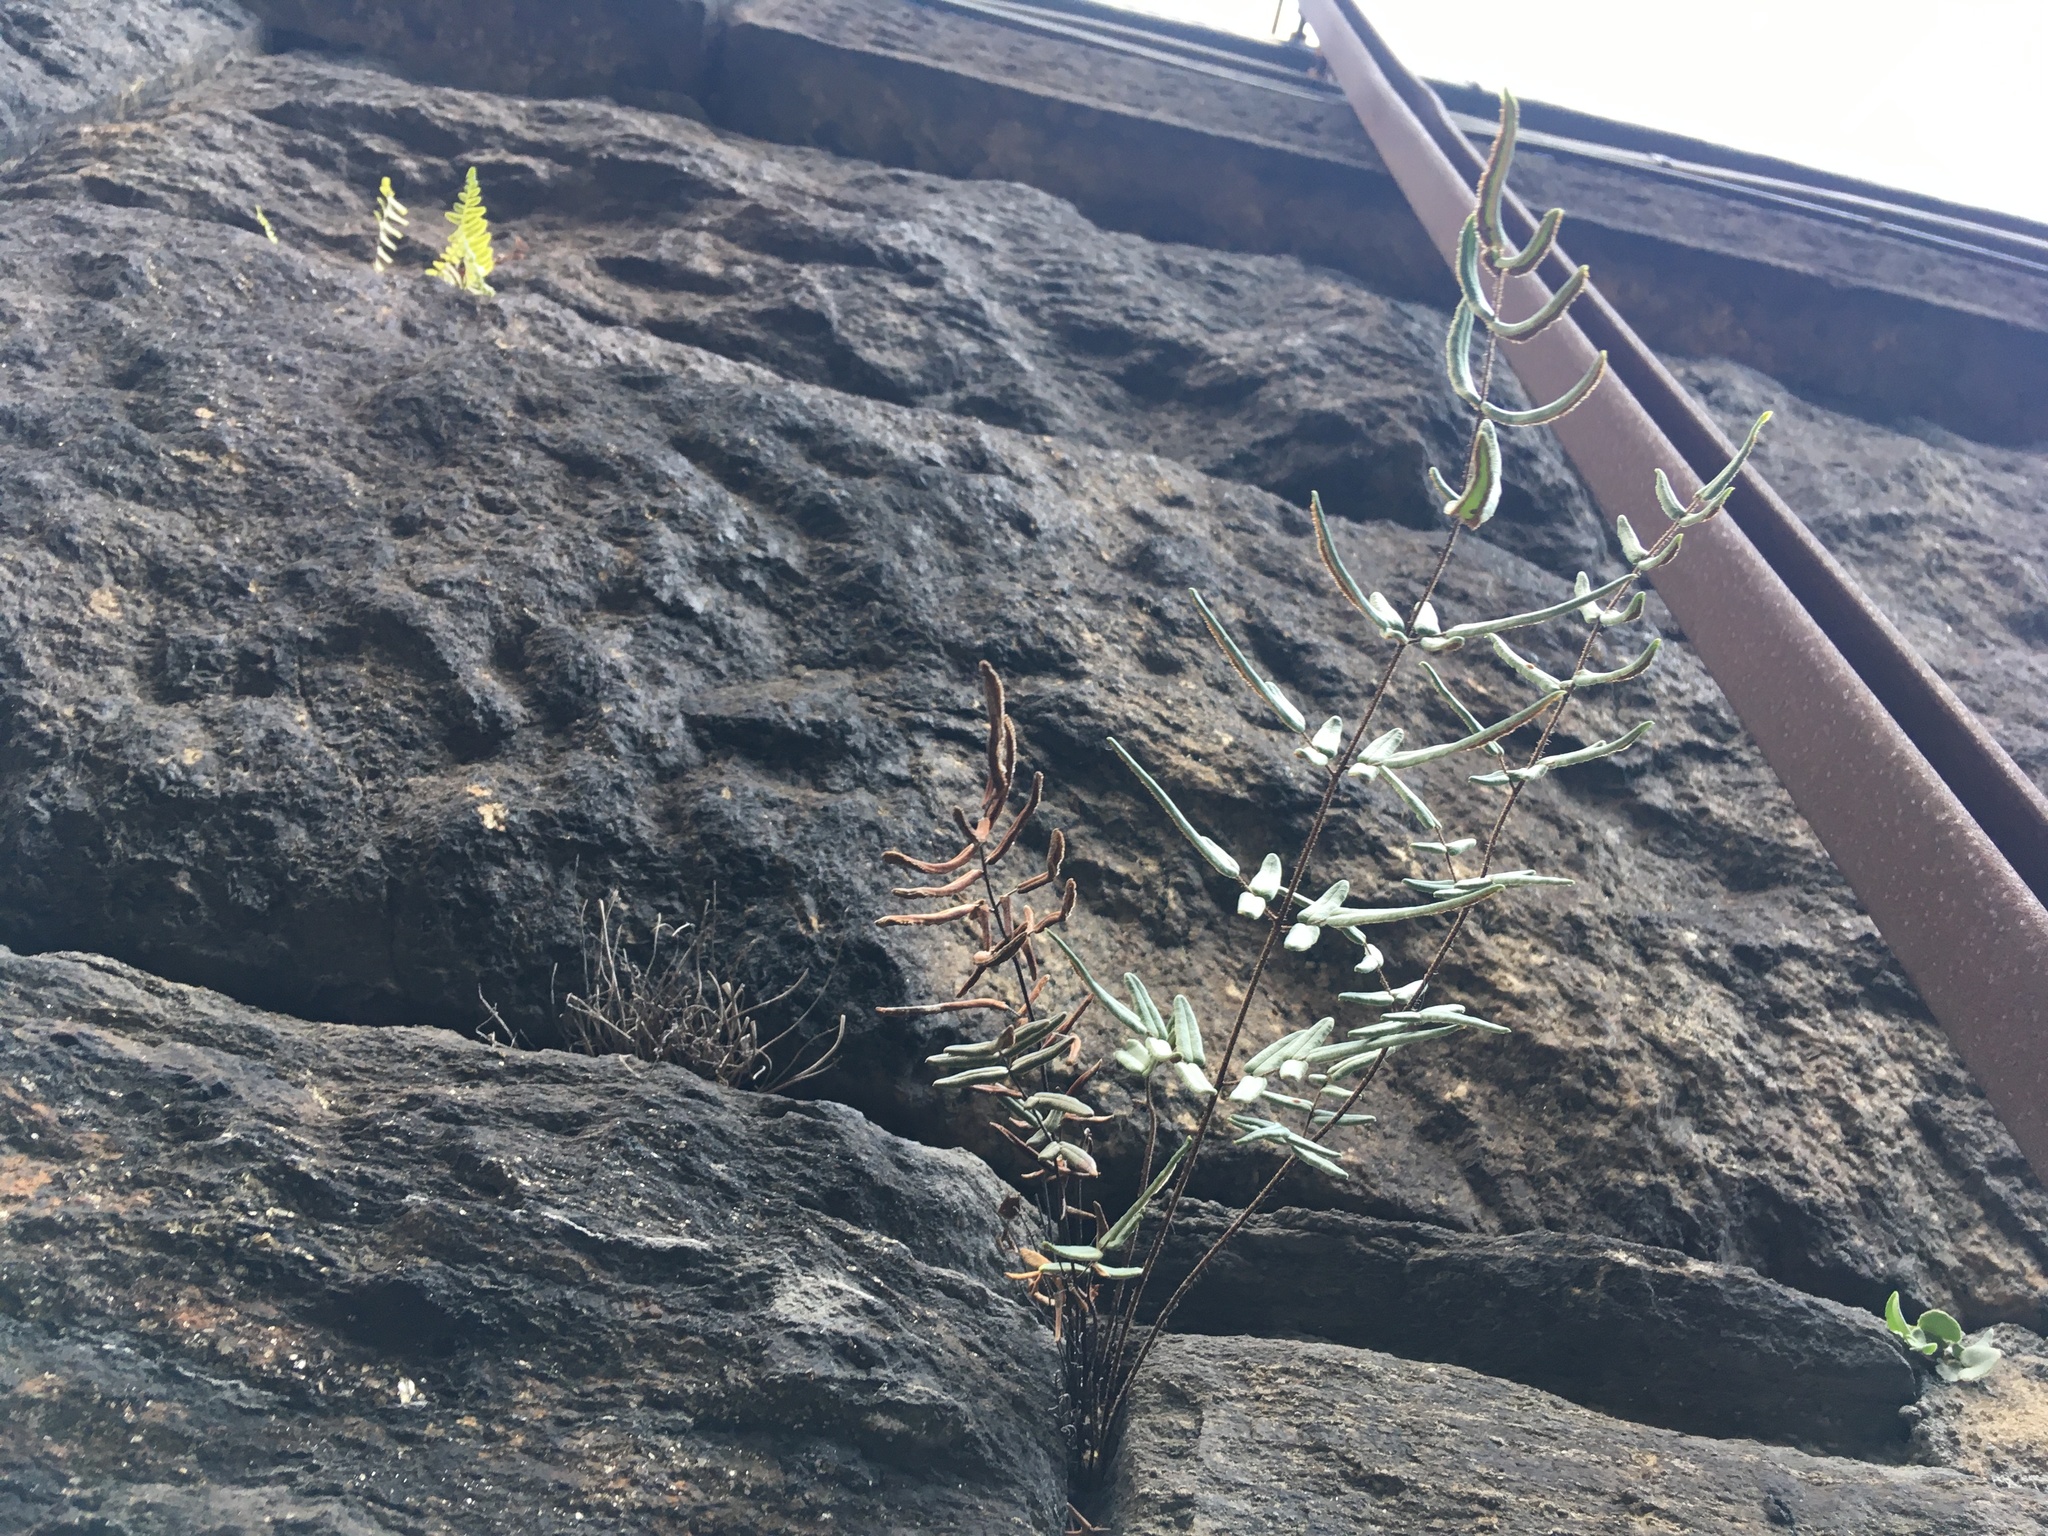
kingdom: Plantae
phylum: Tracheophyta
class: Polypodiopsida
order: Polypodiales
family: Pteridaceae
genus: Pellaea
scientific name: Pellaea atropurpurea
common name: Hairy cliffbrake
